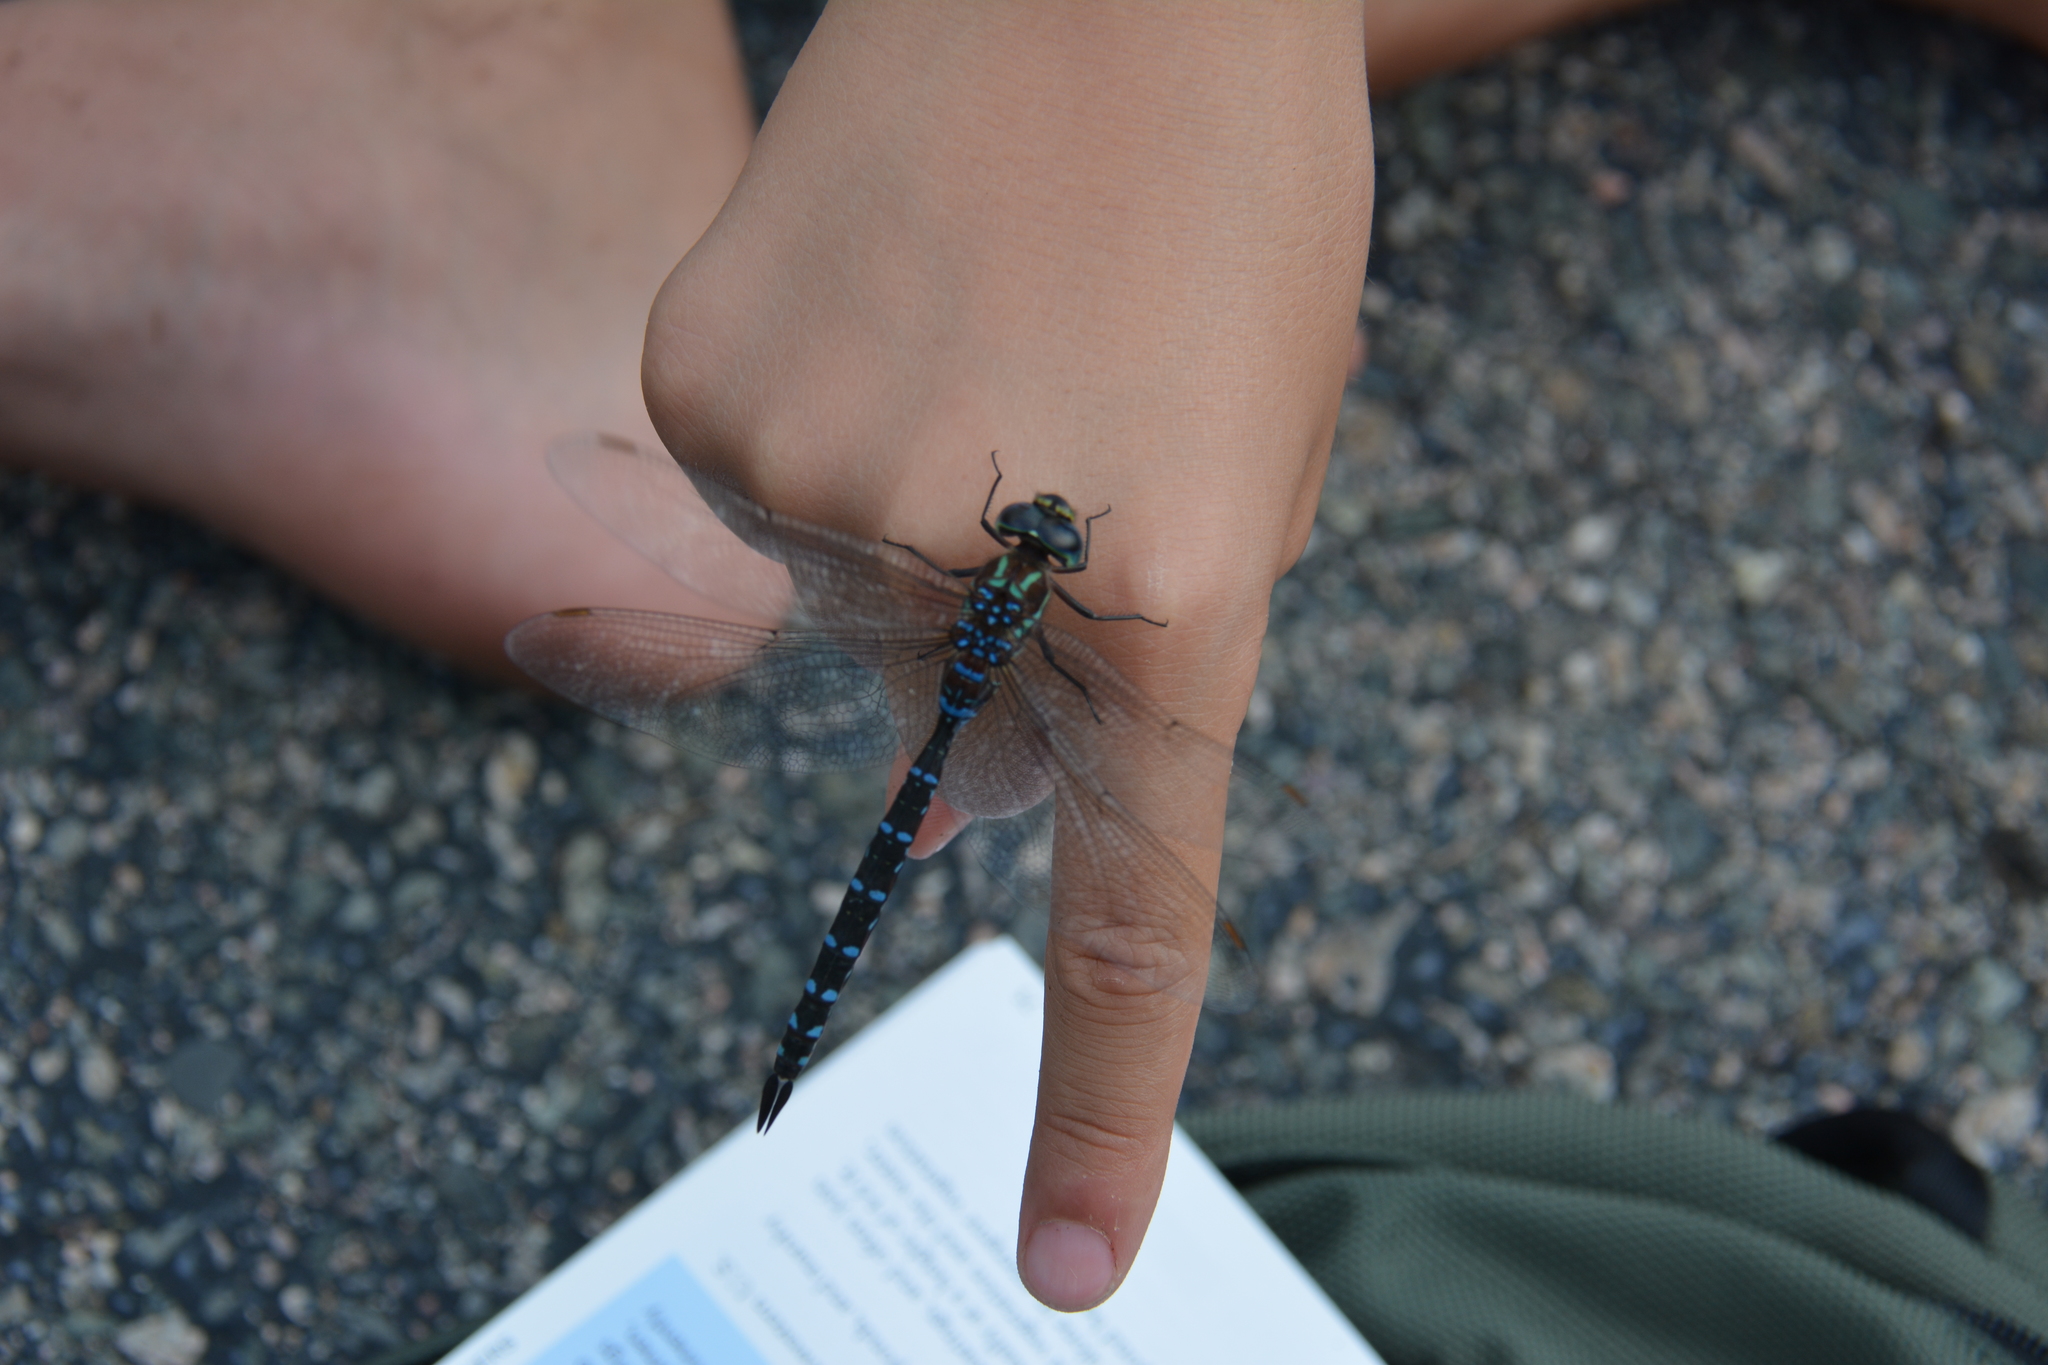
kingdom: Animalia
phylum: Arthropoda
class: Insecta
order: Odonata
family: Aeshnidae
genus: Aeshna
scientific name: Aeshna tuberculifera
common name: Aeschne à tubercules
